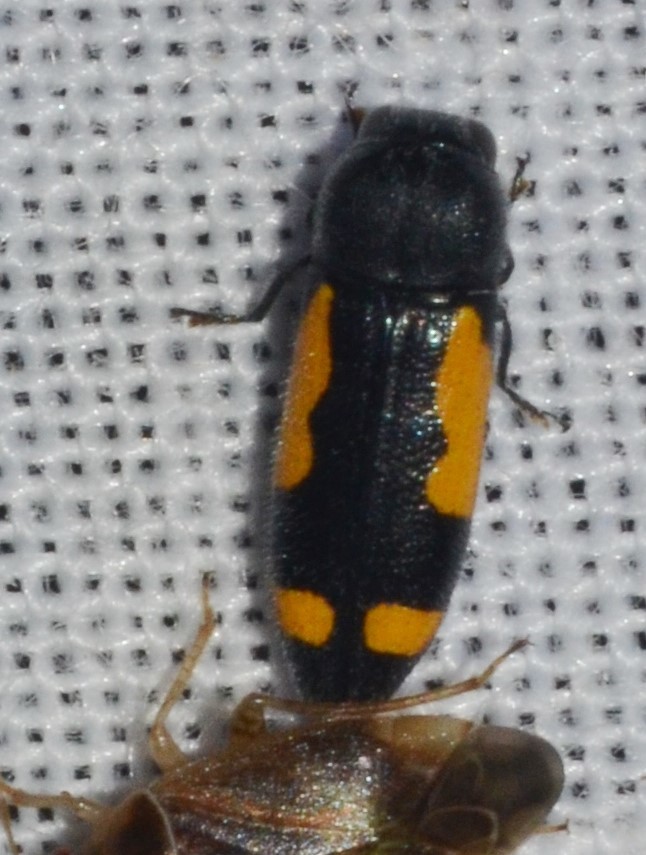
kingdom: Animalia
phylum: Arthropoda
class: Insecta
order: Coleoptera
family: Buprestidae
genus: Ptosima
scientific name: Ptosima gibbicollis
